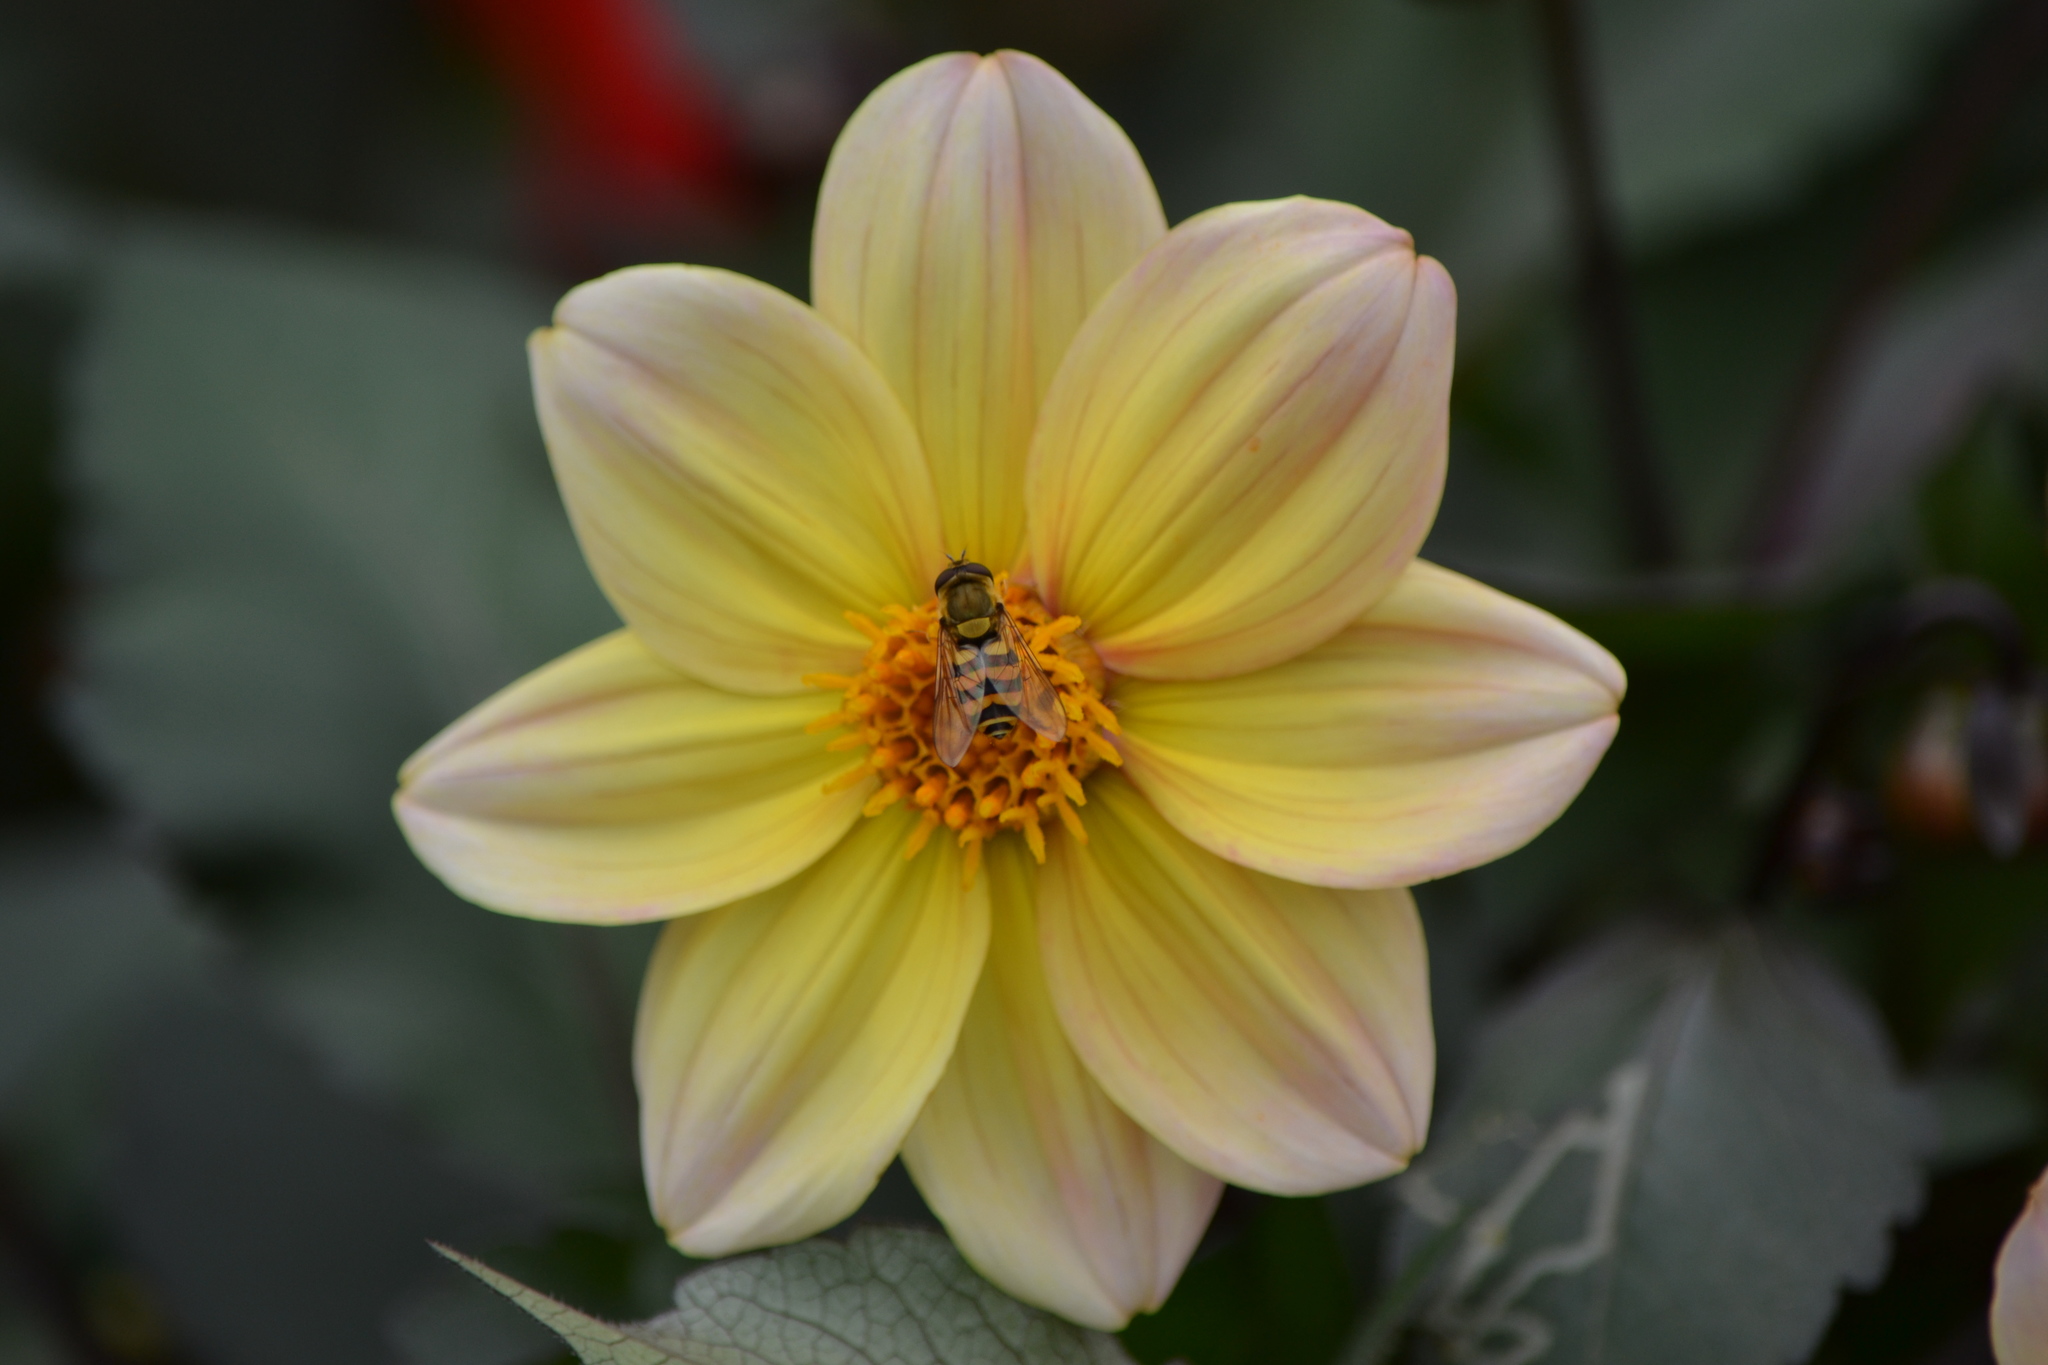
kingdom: Animalia
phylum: Arthropoda
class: Insecta
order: Diptera
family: Syrphidae
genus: Syrphus
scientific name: Syrphus
